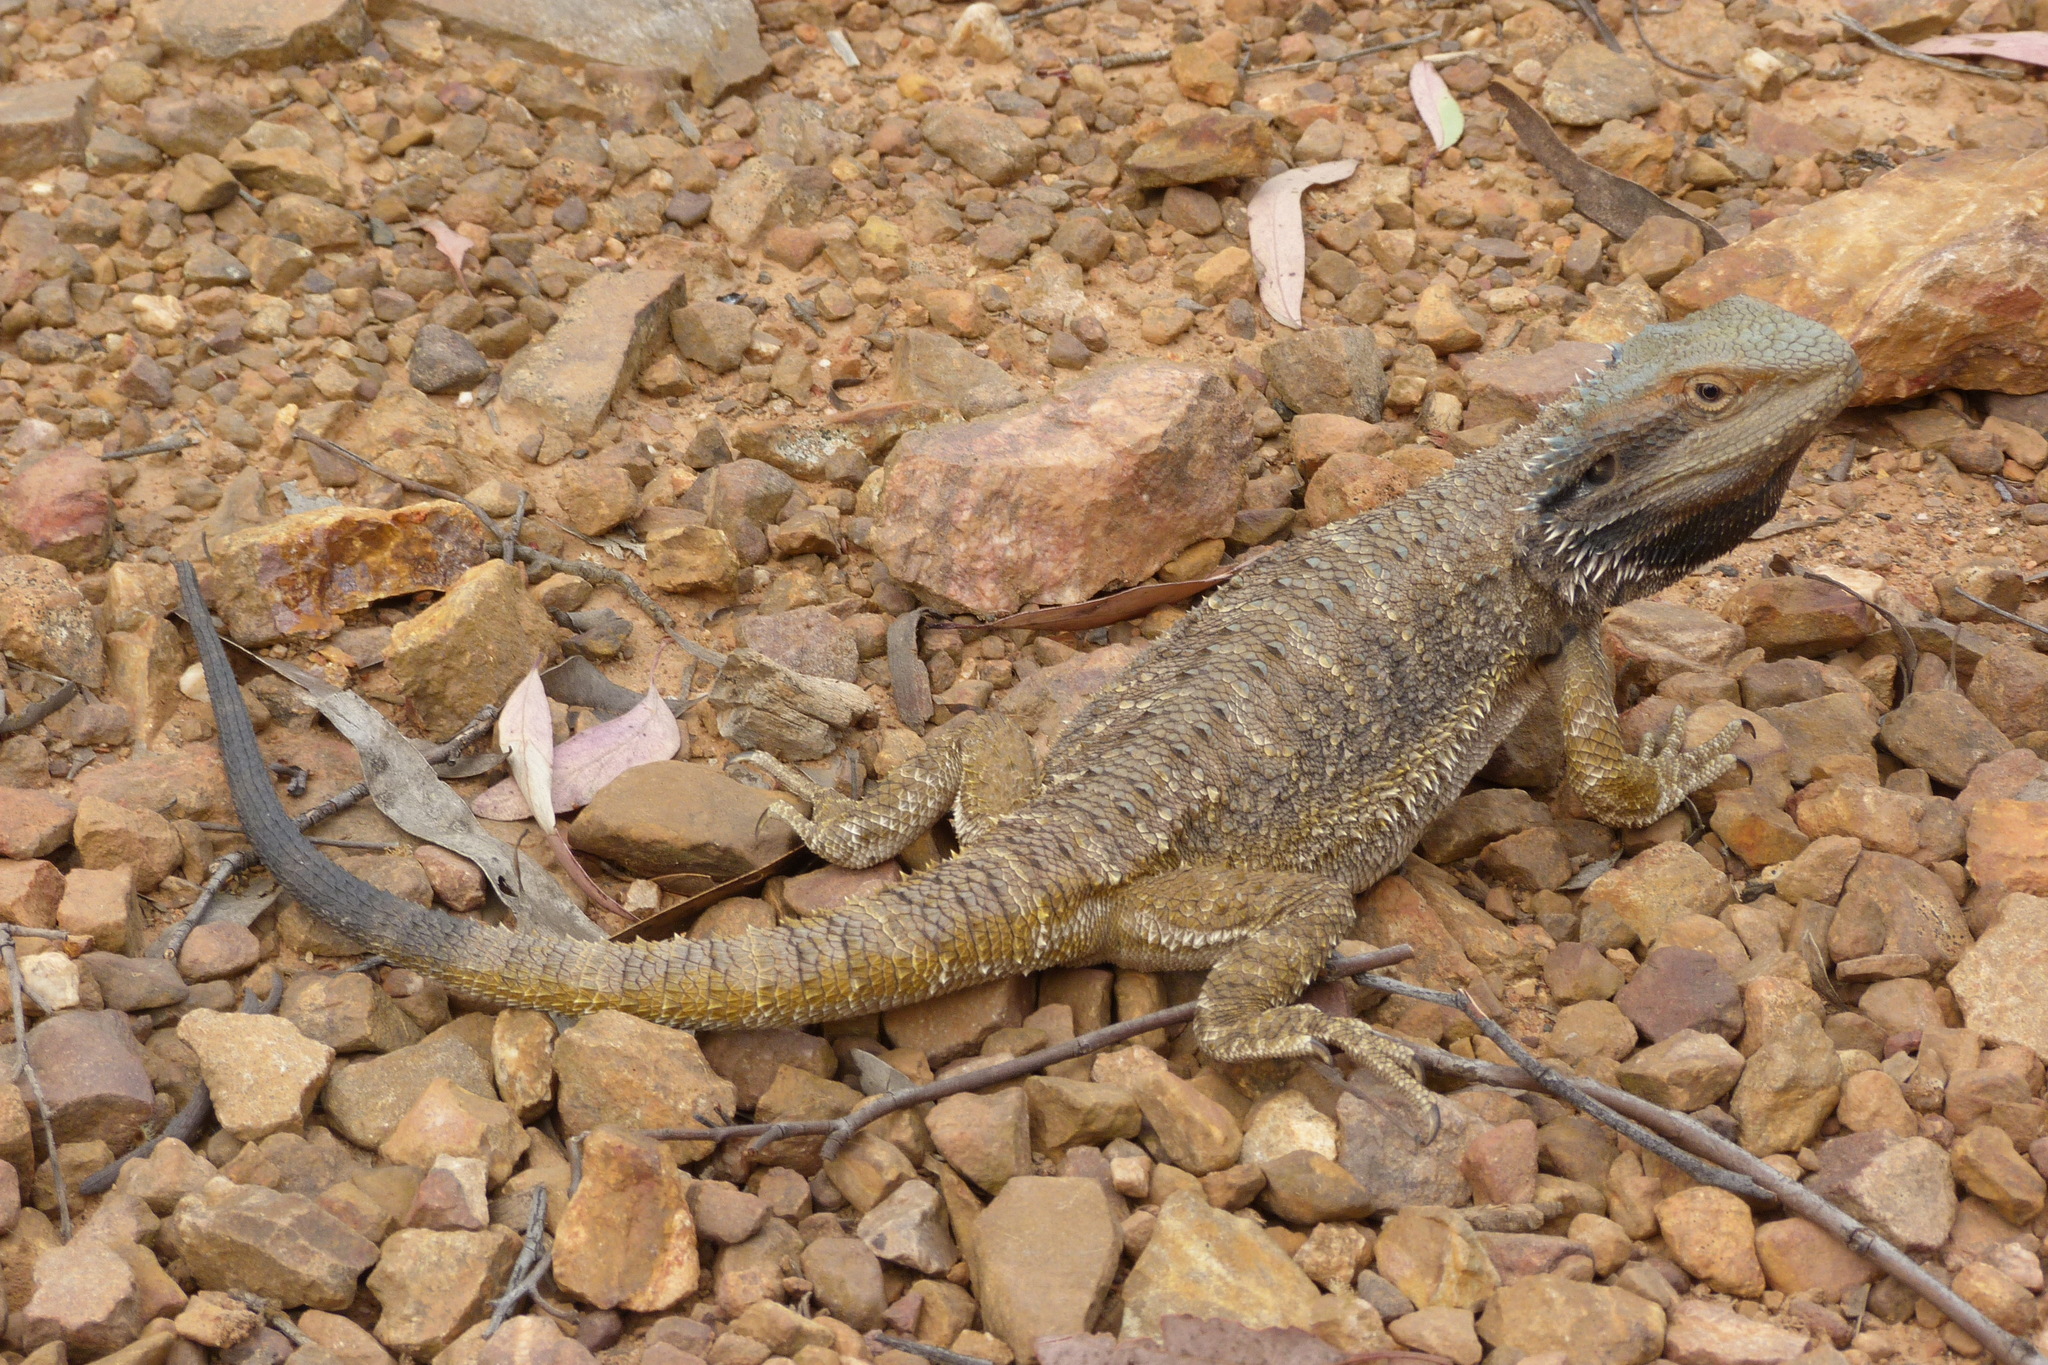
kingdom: Animalia
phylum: Chordata
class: Squamata
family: Agamidae
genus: Pogona
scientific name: Pogona barbata
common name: Bearded dragon
